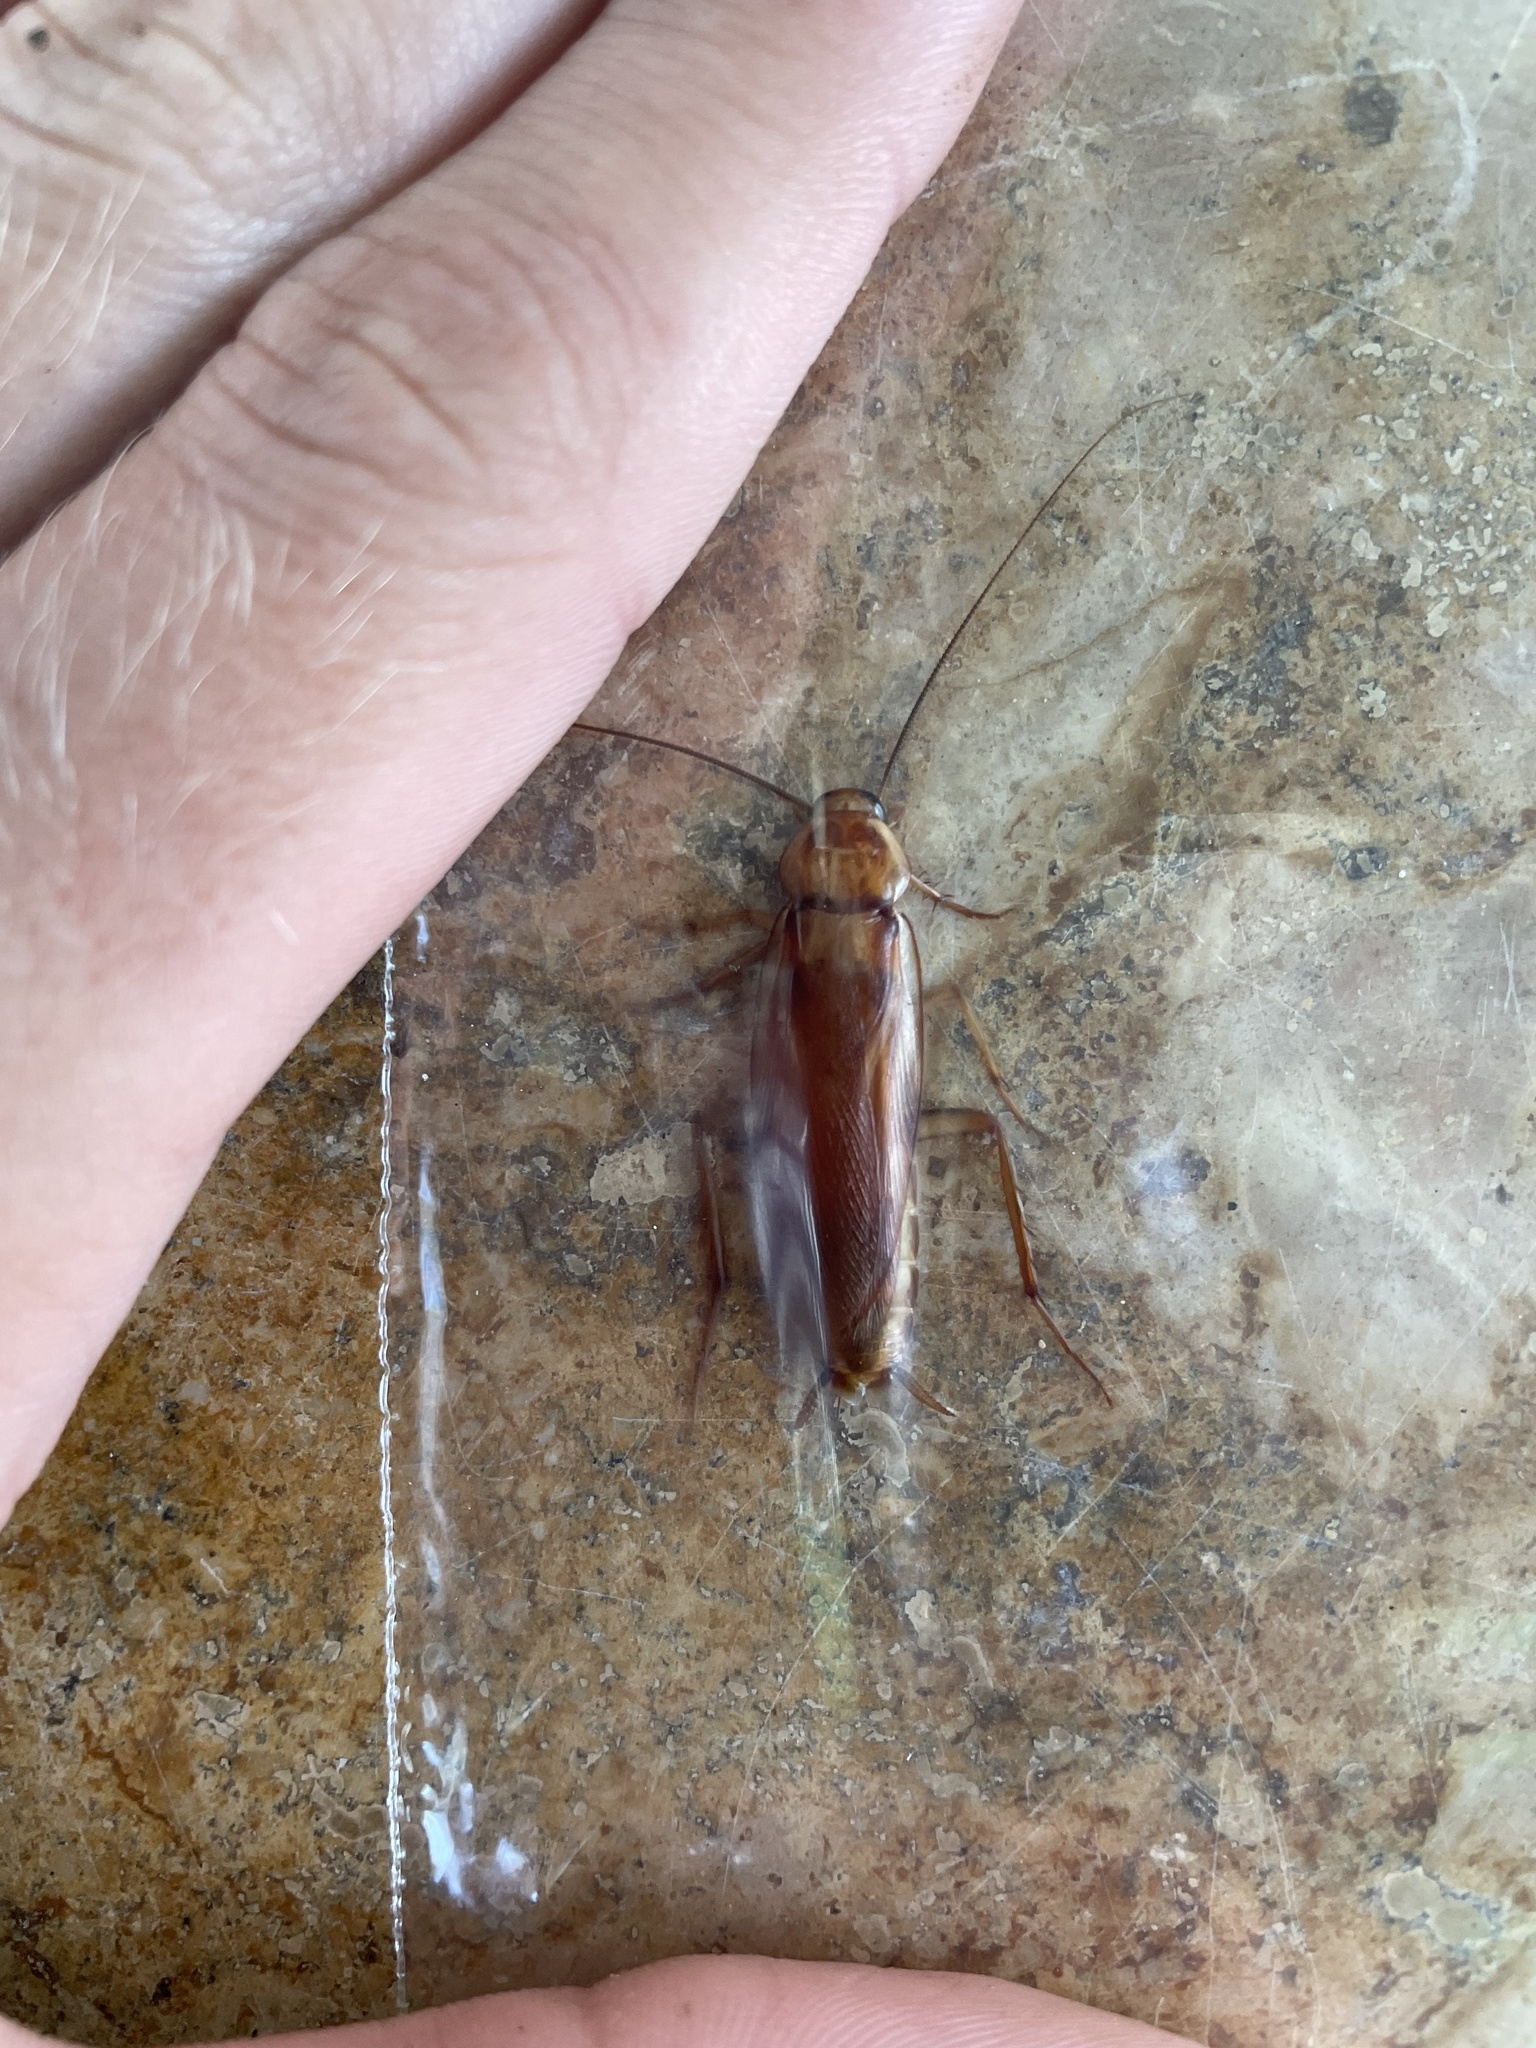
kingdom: Animalia
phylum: Arthropoda
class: Insecta
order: Blattodea
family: Blattidae
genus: Periplaneta
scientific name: Periplaneta lateralis
